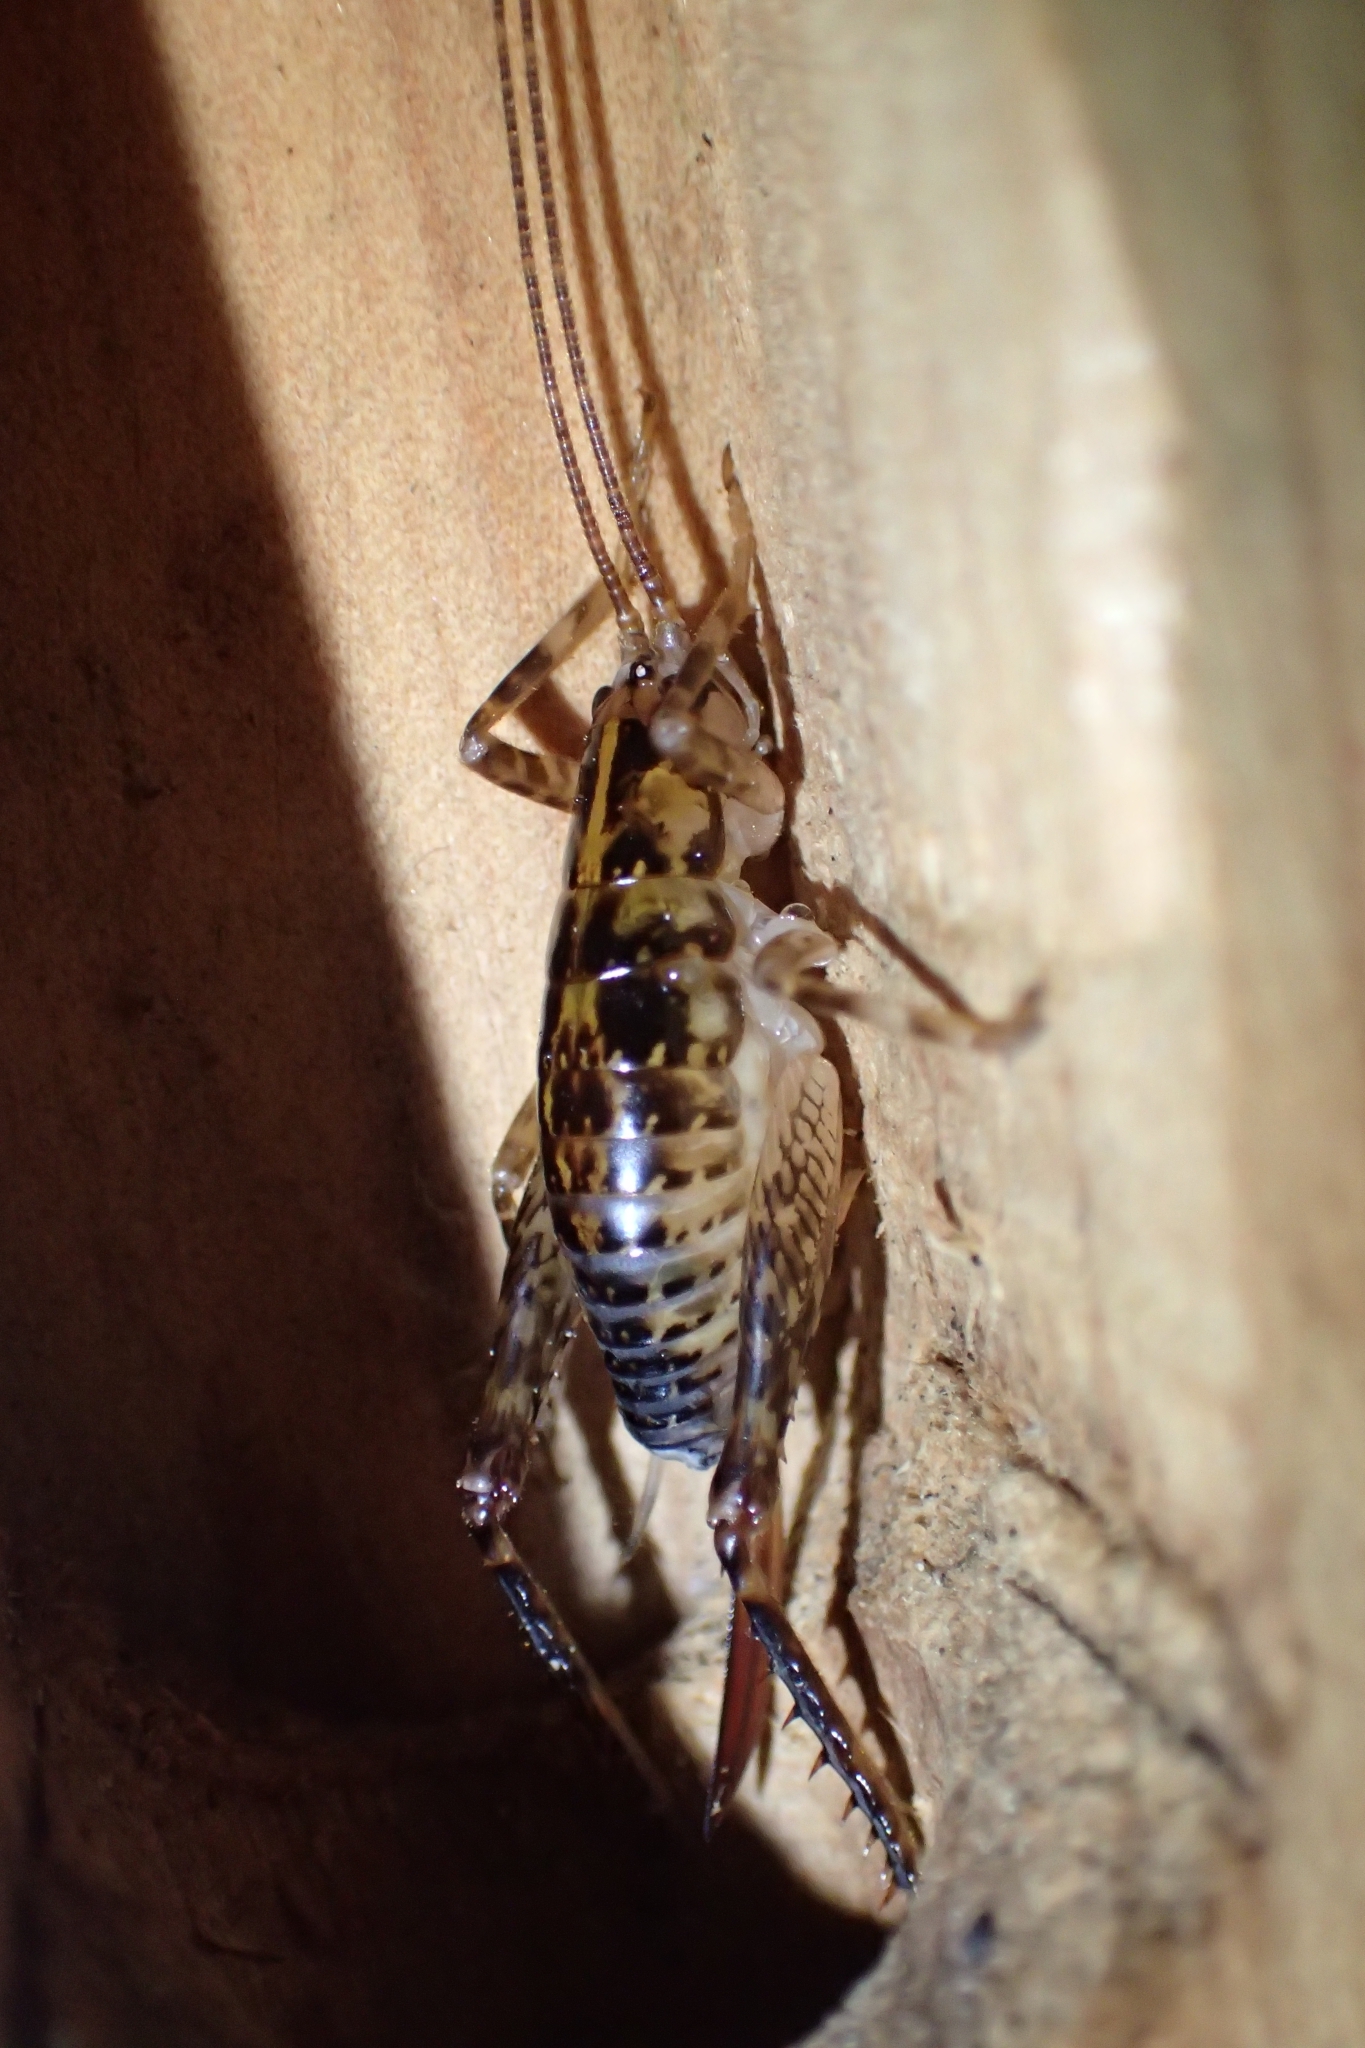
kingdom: Animalia
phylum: Arthropoda
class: Insecta
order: Orthoptera
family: Rhaphidophoridae
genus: Talitropsis
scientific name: Talitropsis sedilloti
